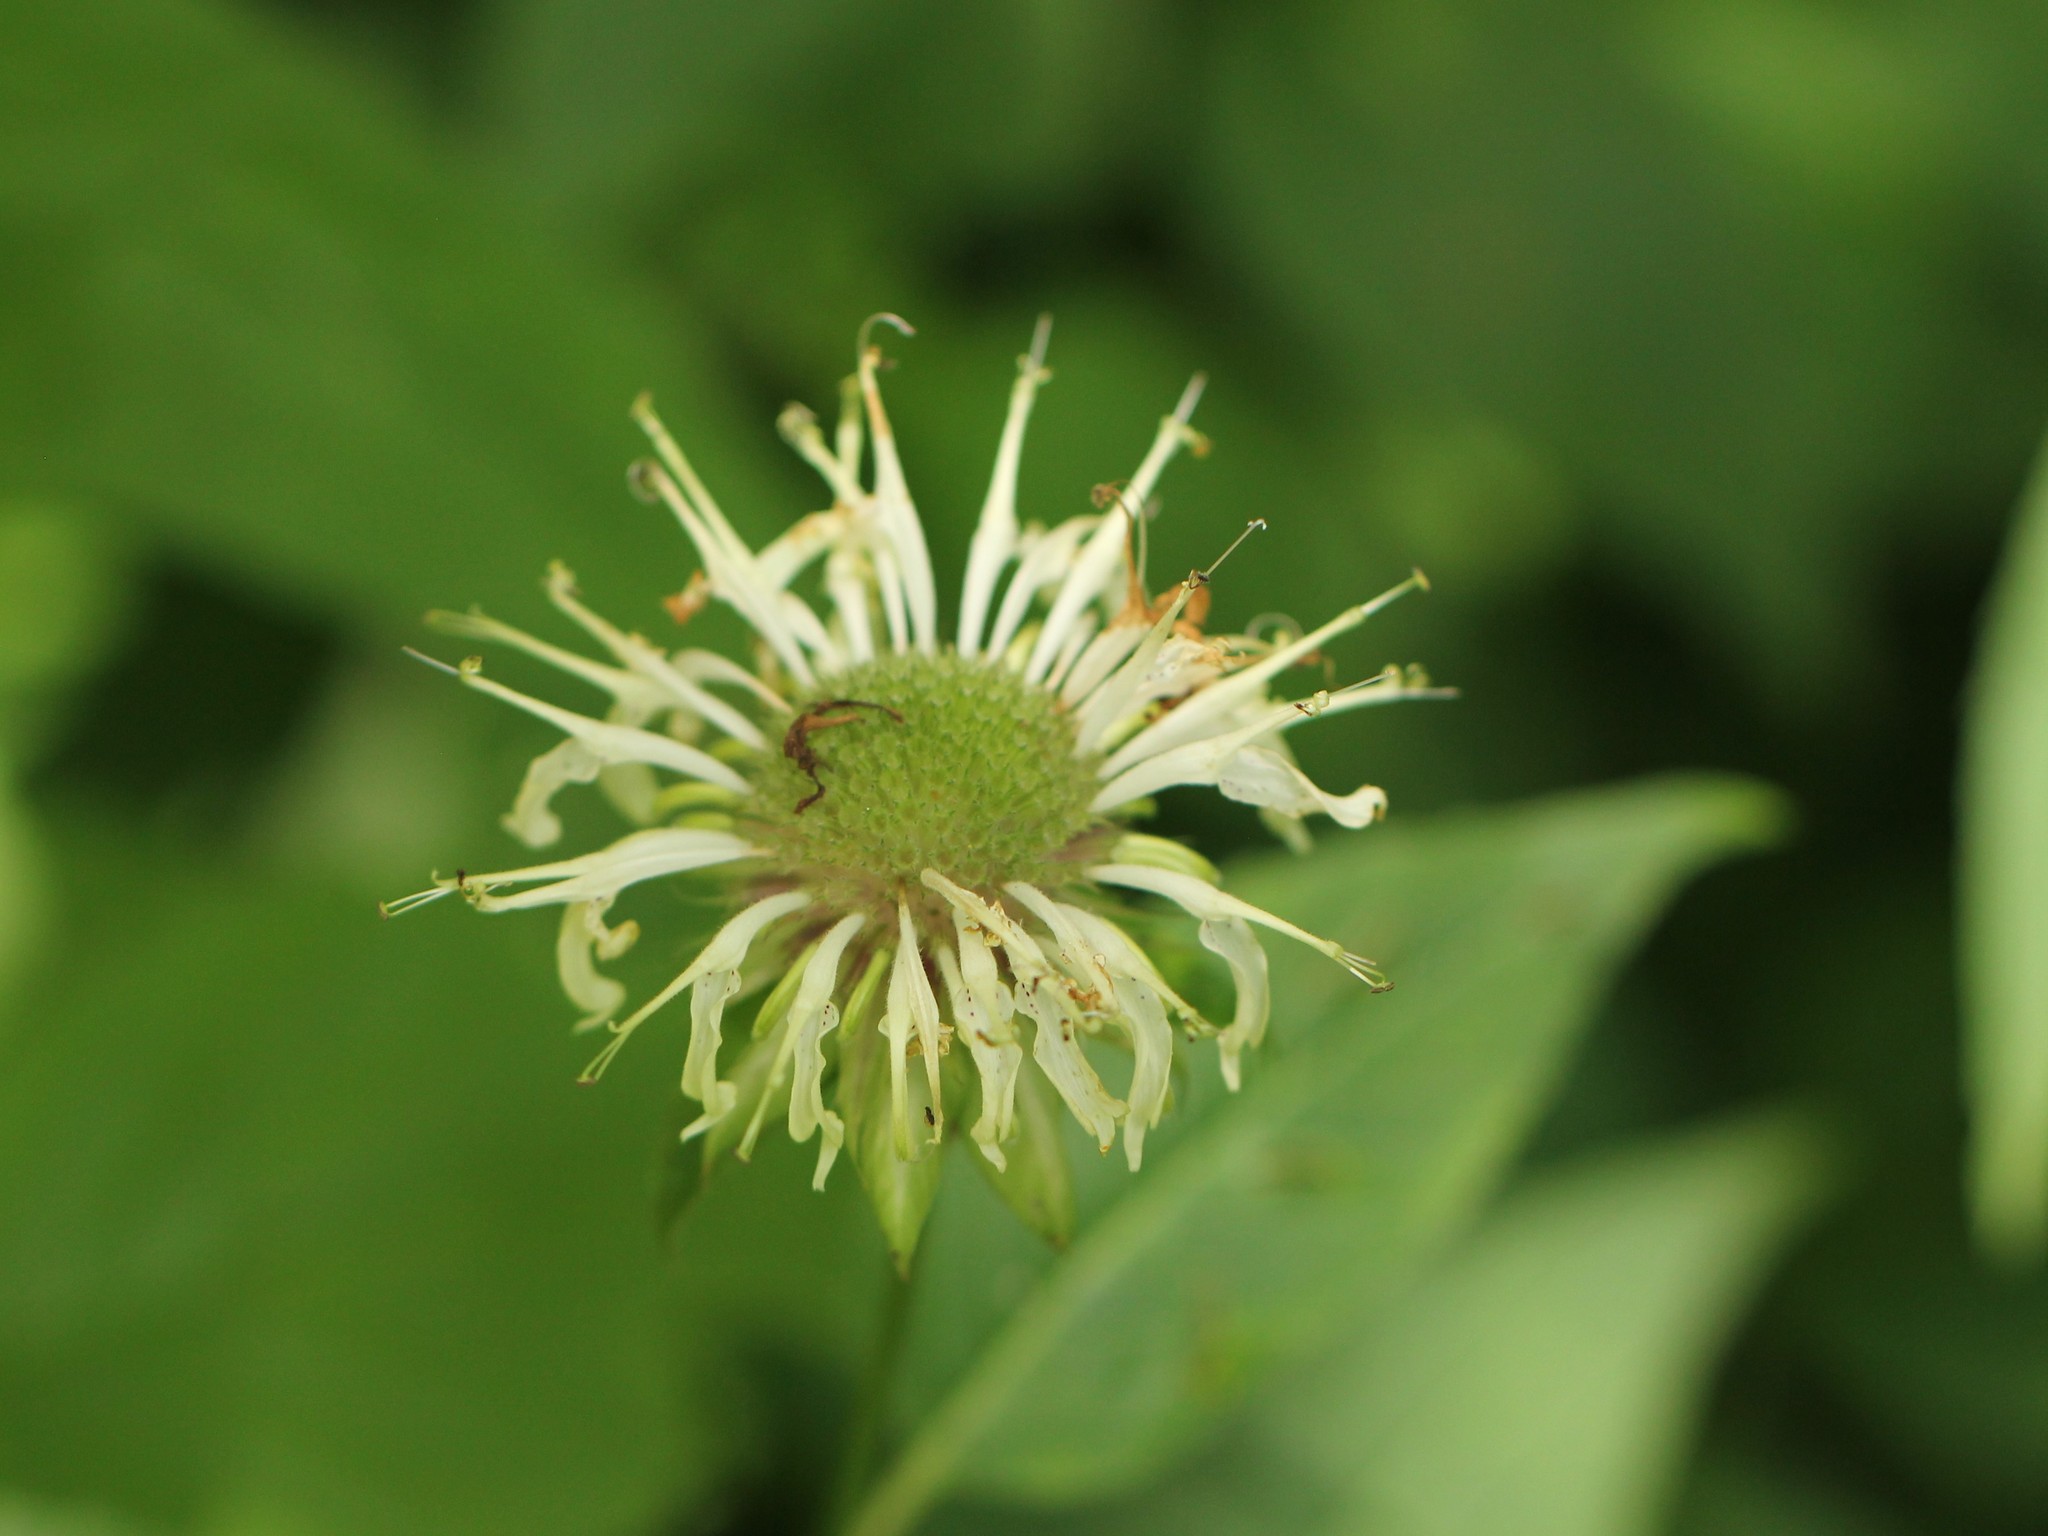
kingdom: Plantae
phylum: Tracheophyta
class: Magnoliopsida
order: Lamiales
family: Lamiaceae
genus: Monarda
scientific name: Monarda clinopodia
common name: Basil beebalm
